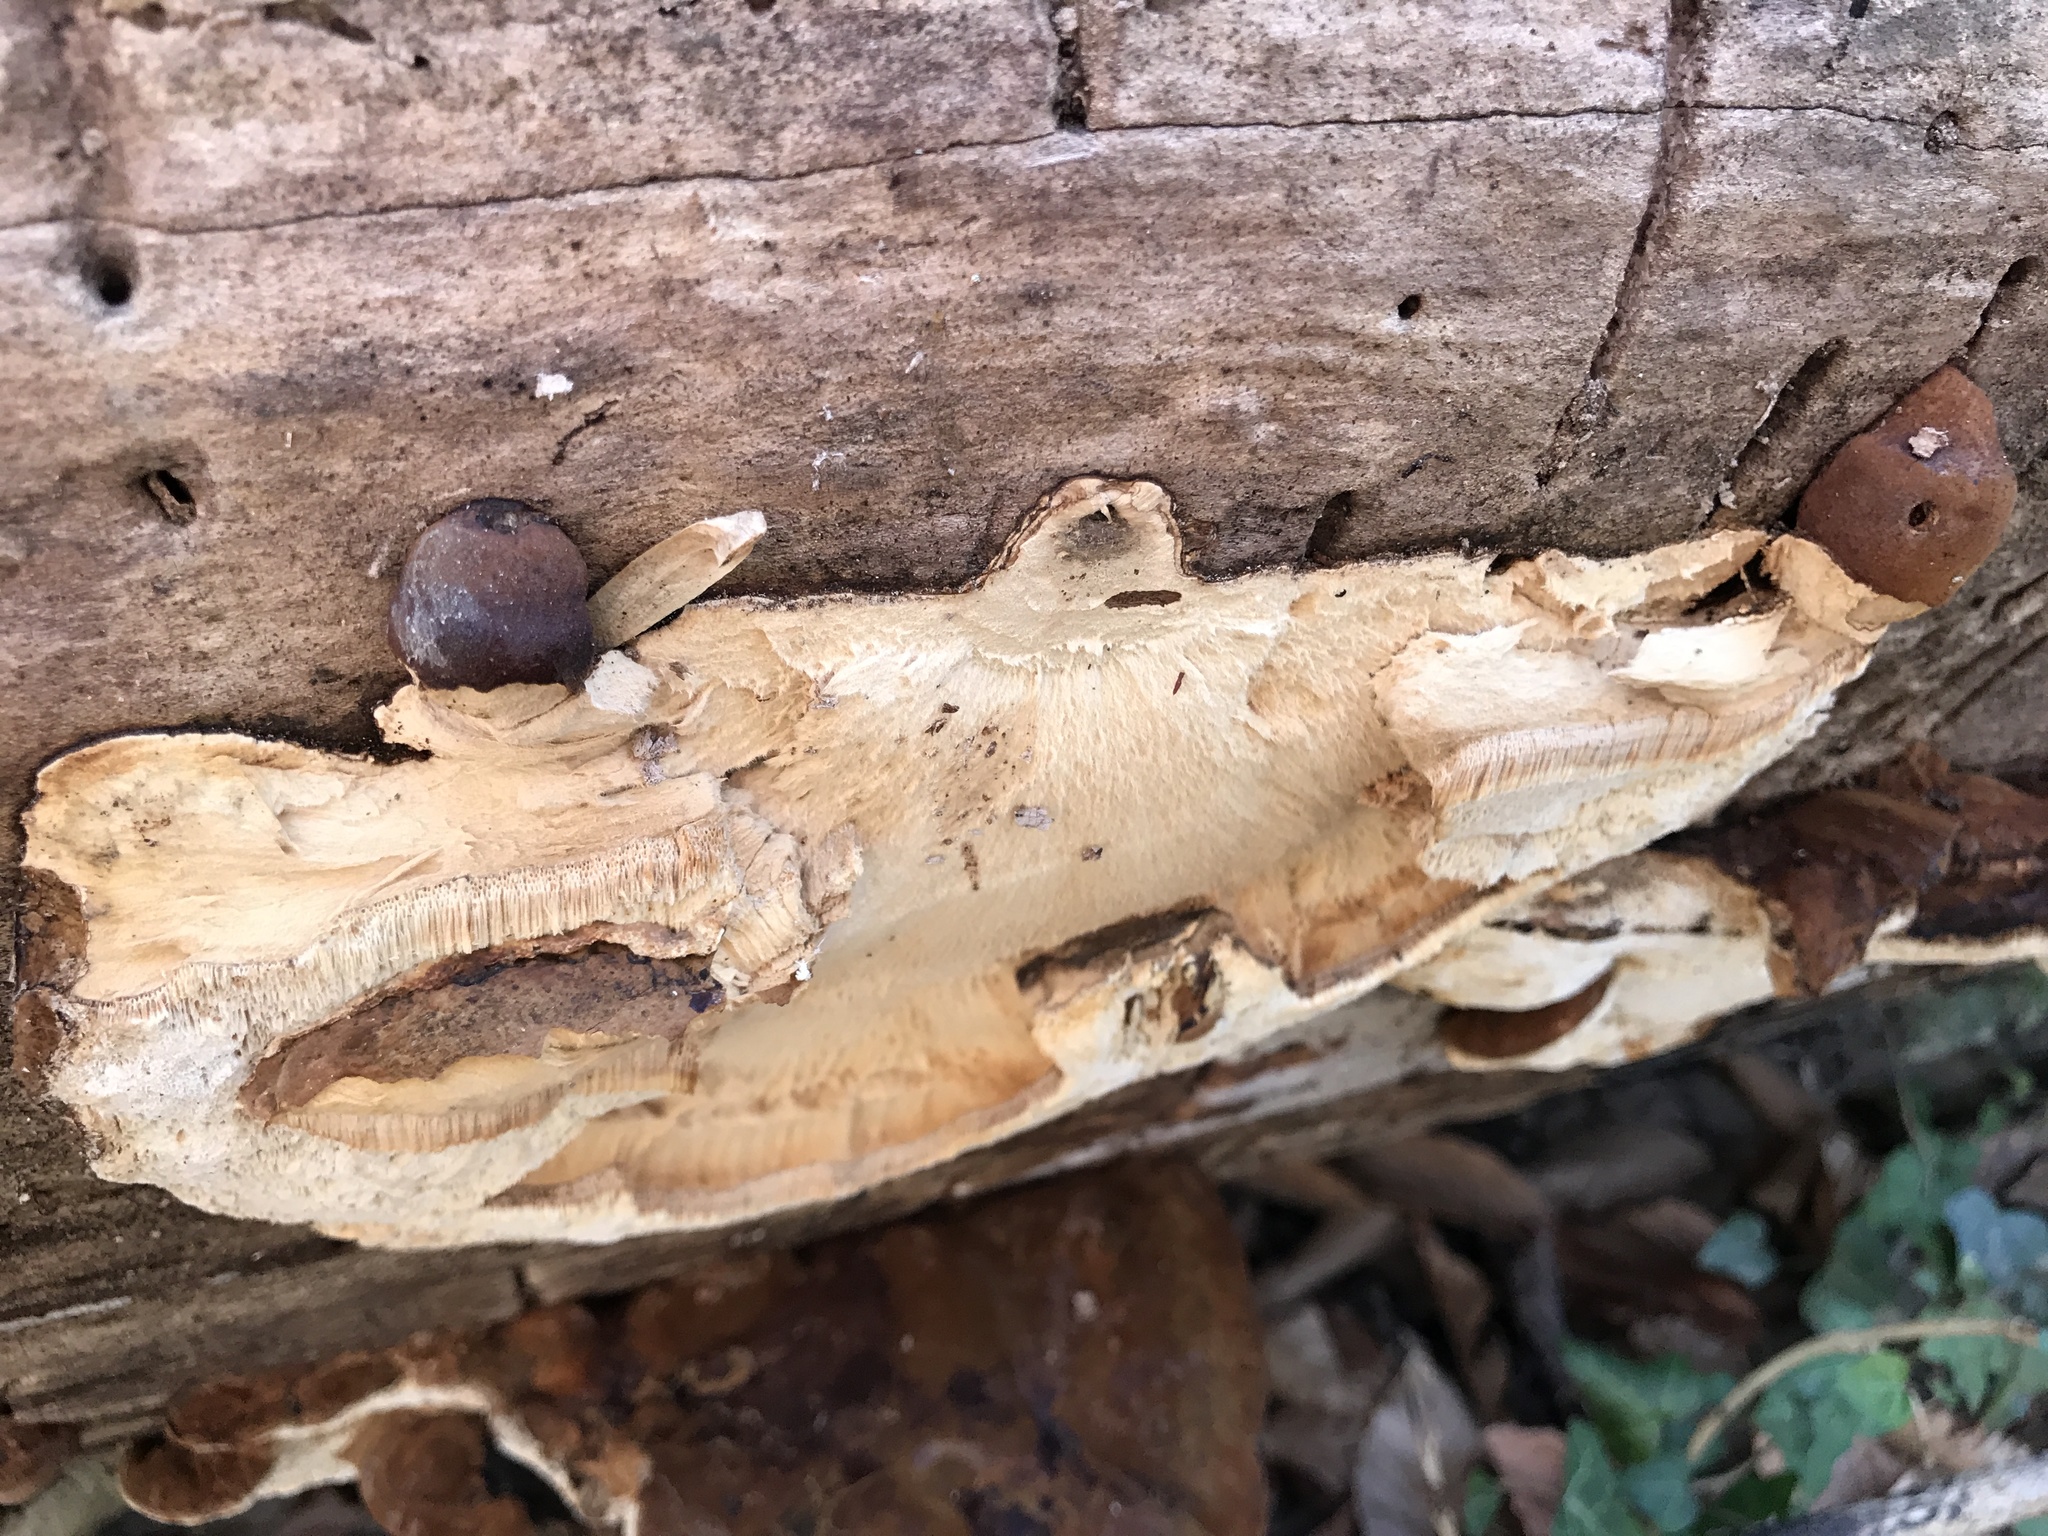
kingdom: Fungi
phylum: Basidiomycota
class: Agaricomycetes
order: Polyporales
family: Ischnodermataceae
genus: Ischnoderma
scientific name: Ischnoderma resinosum
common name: Resinous polypore
